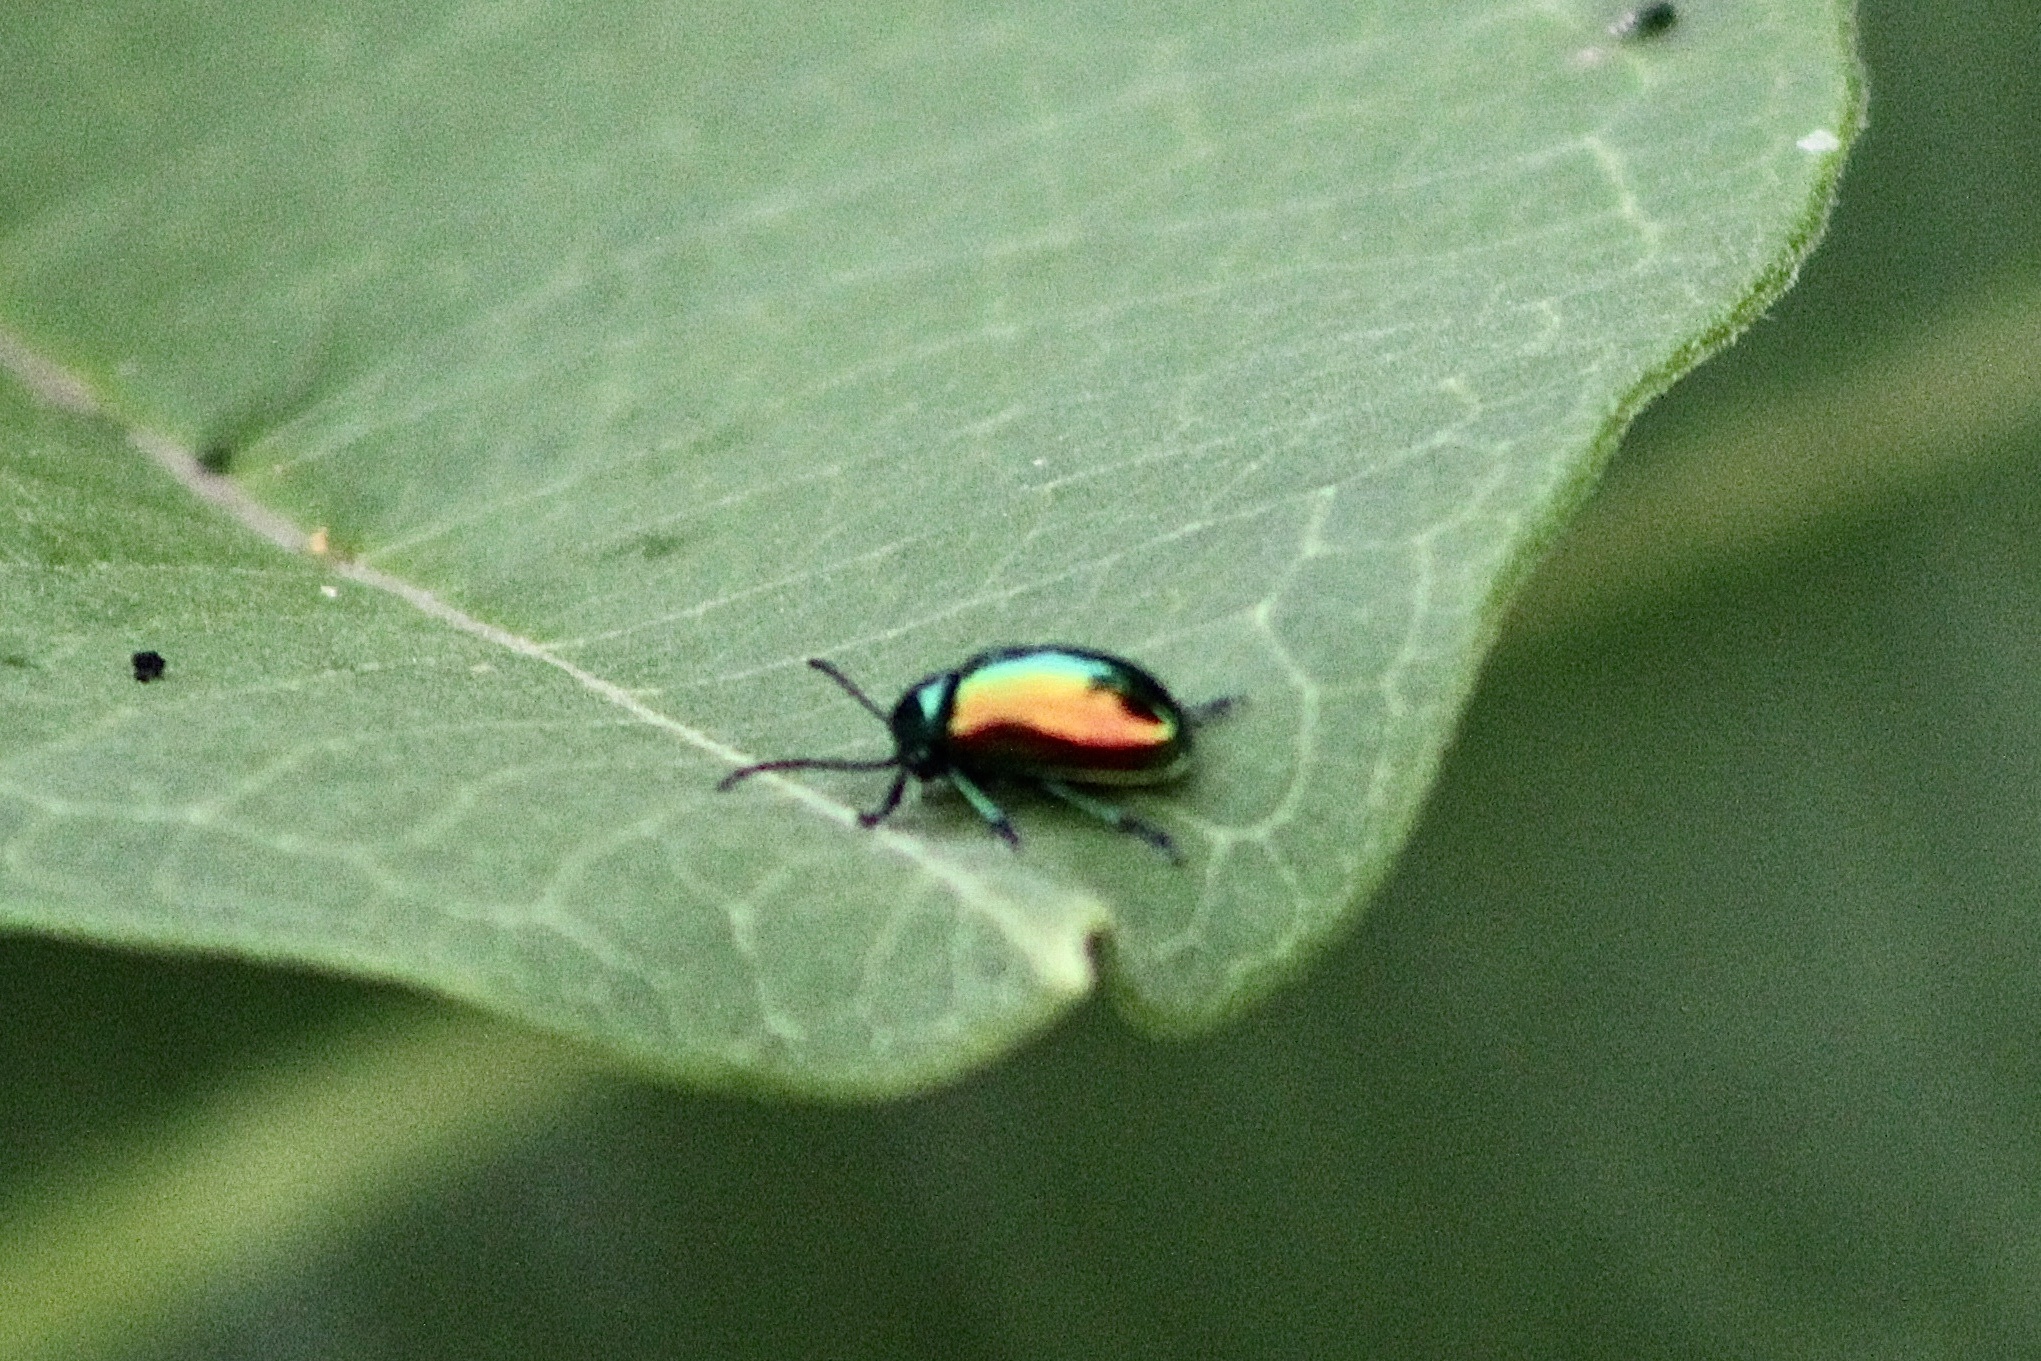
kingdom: Animalia
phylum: Arthropoda
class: Insecta
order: Coleoptera
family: Chrysomelidae
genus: Chrysochus
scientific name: Chrysochus auratus
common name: Dogbane leaf beetle
